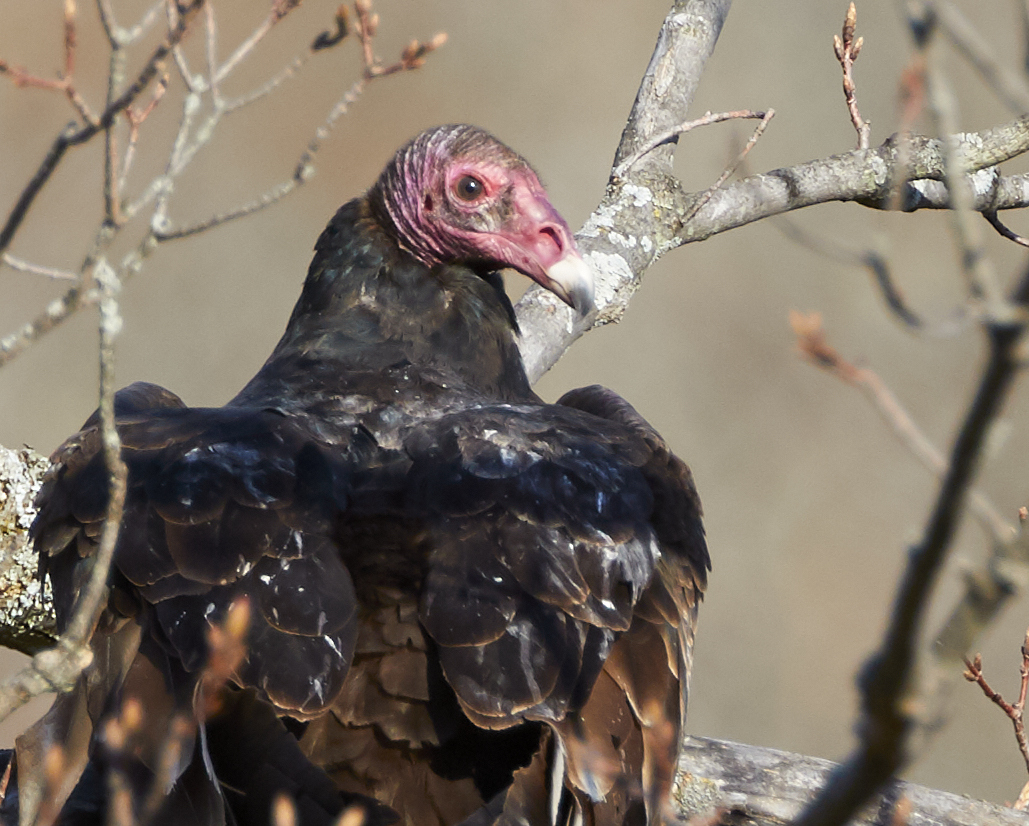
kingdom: Animalia
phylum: Chordata
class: Aves
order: Accipitriformes
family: Cathartidae
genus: Cathartes
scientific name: Cathartes aura
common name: Turkey vulture
